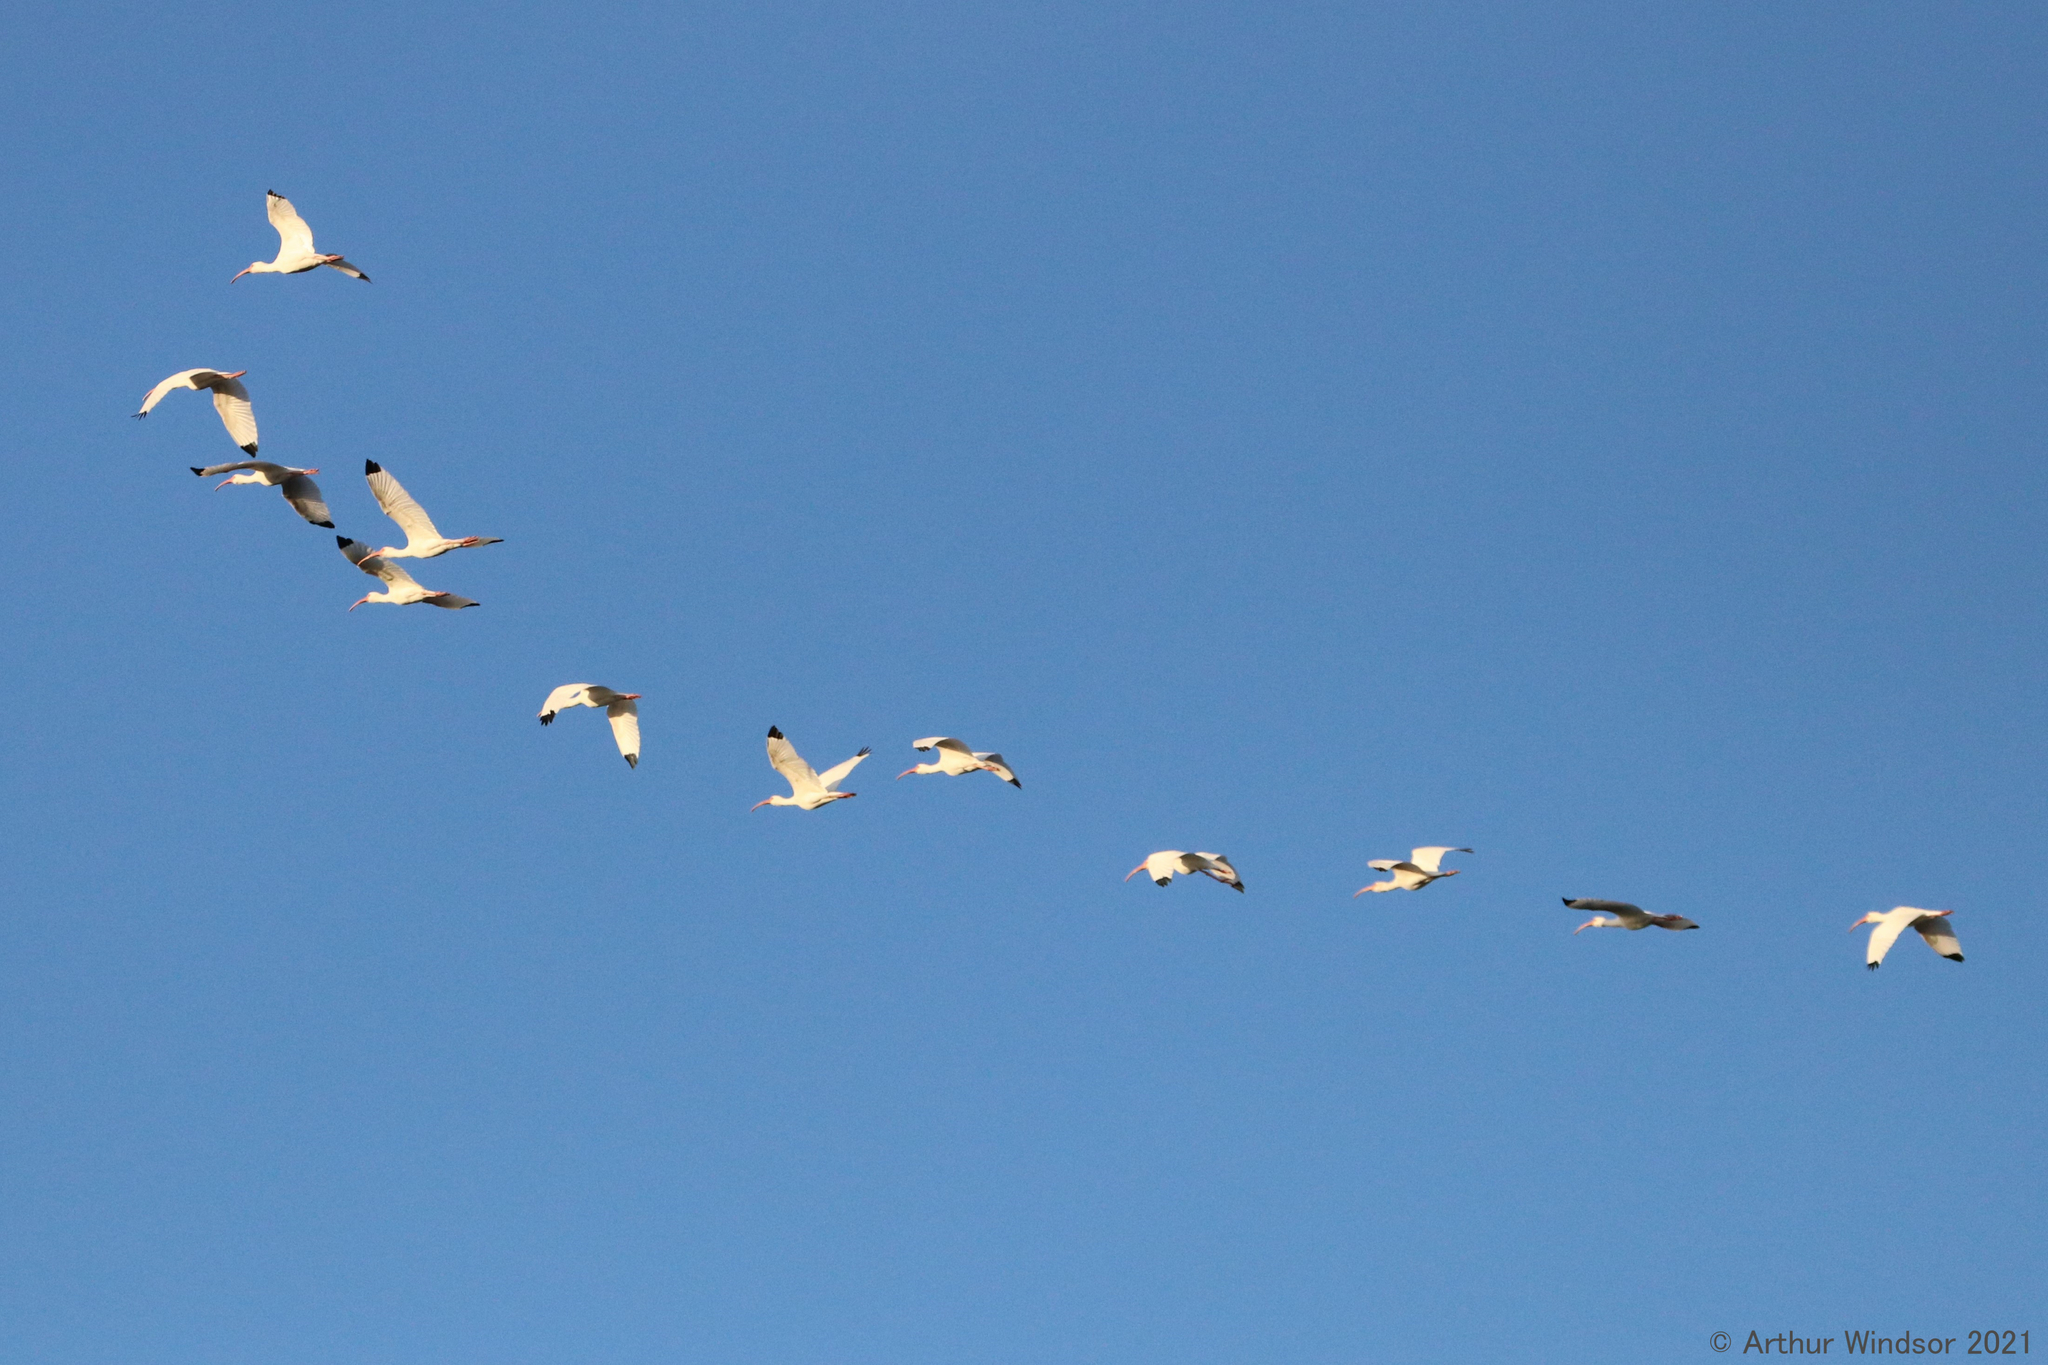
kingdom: Animalia
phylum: Chordata
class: Aves
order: Pelecaniformes
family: Threskiornithidae
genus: Eudocimus
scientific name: Eudocimus albus
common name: White ibis
